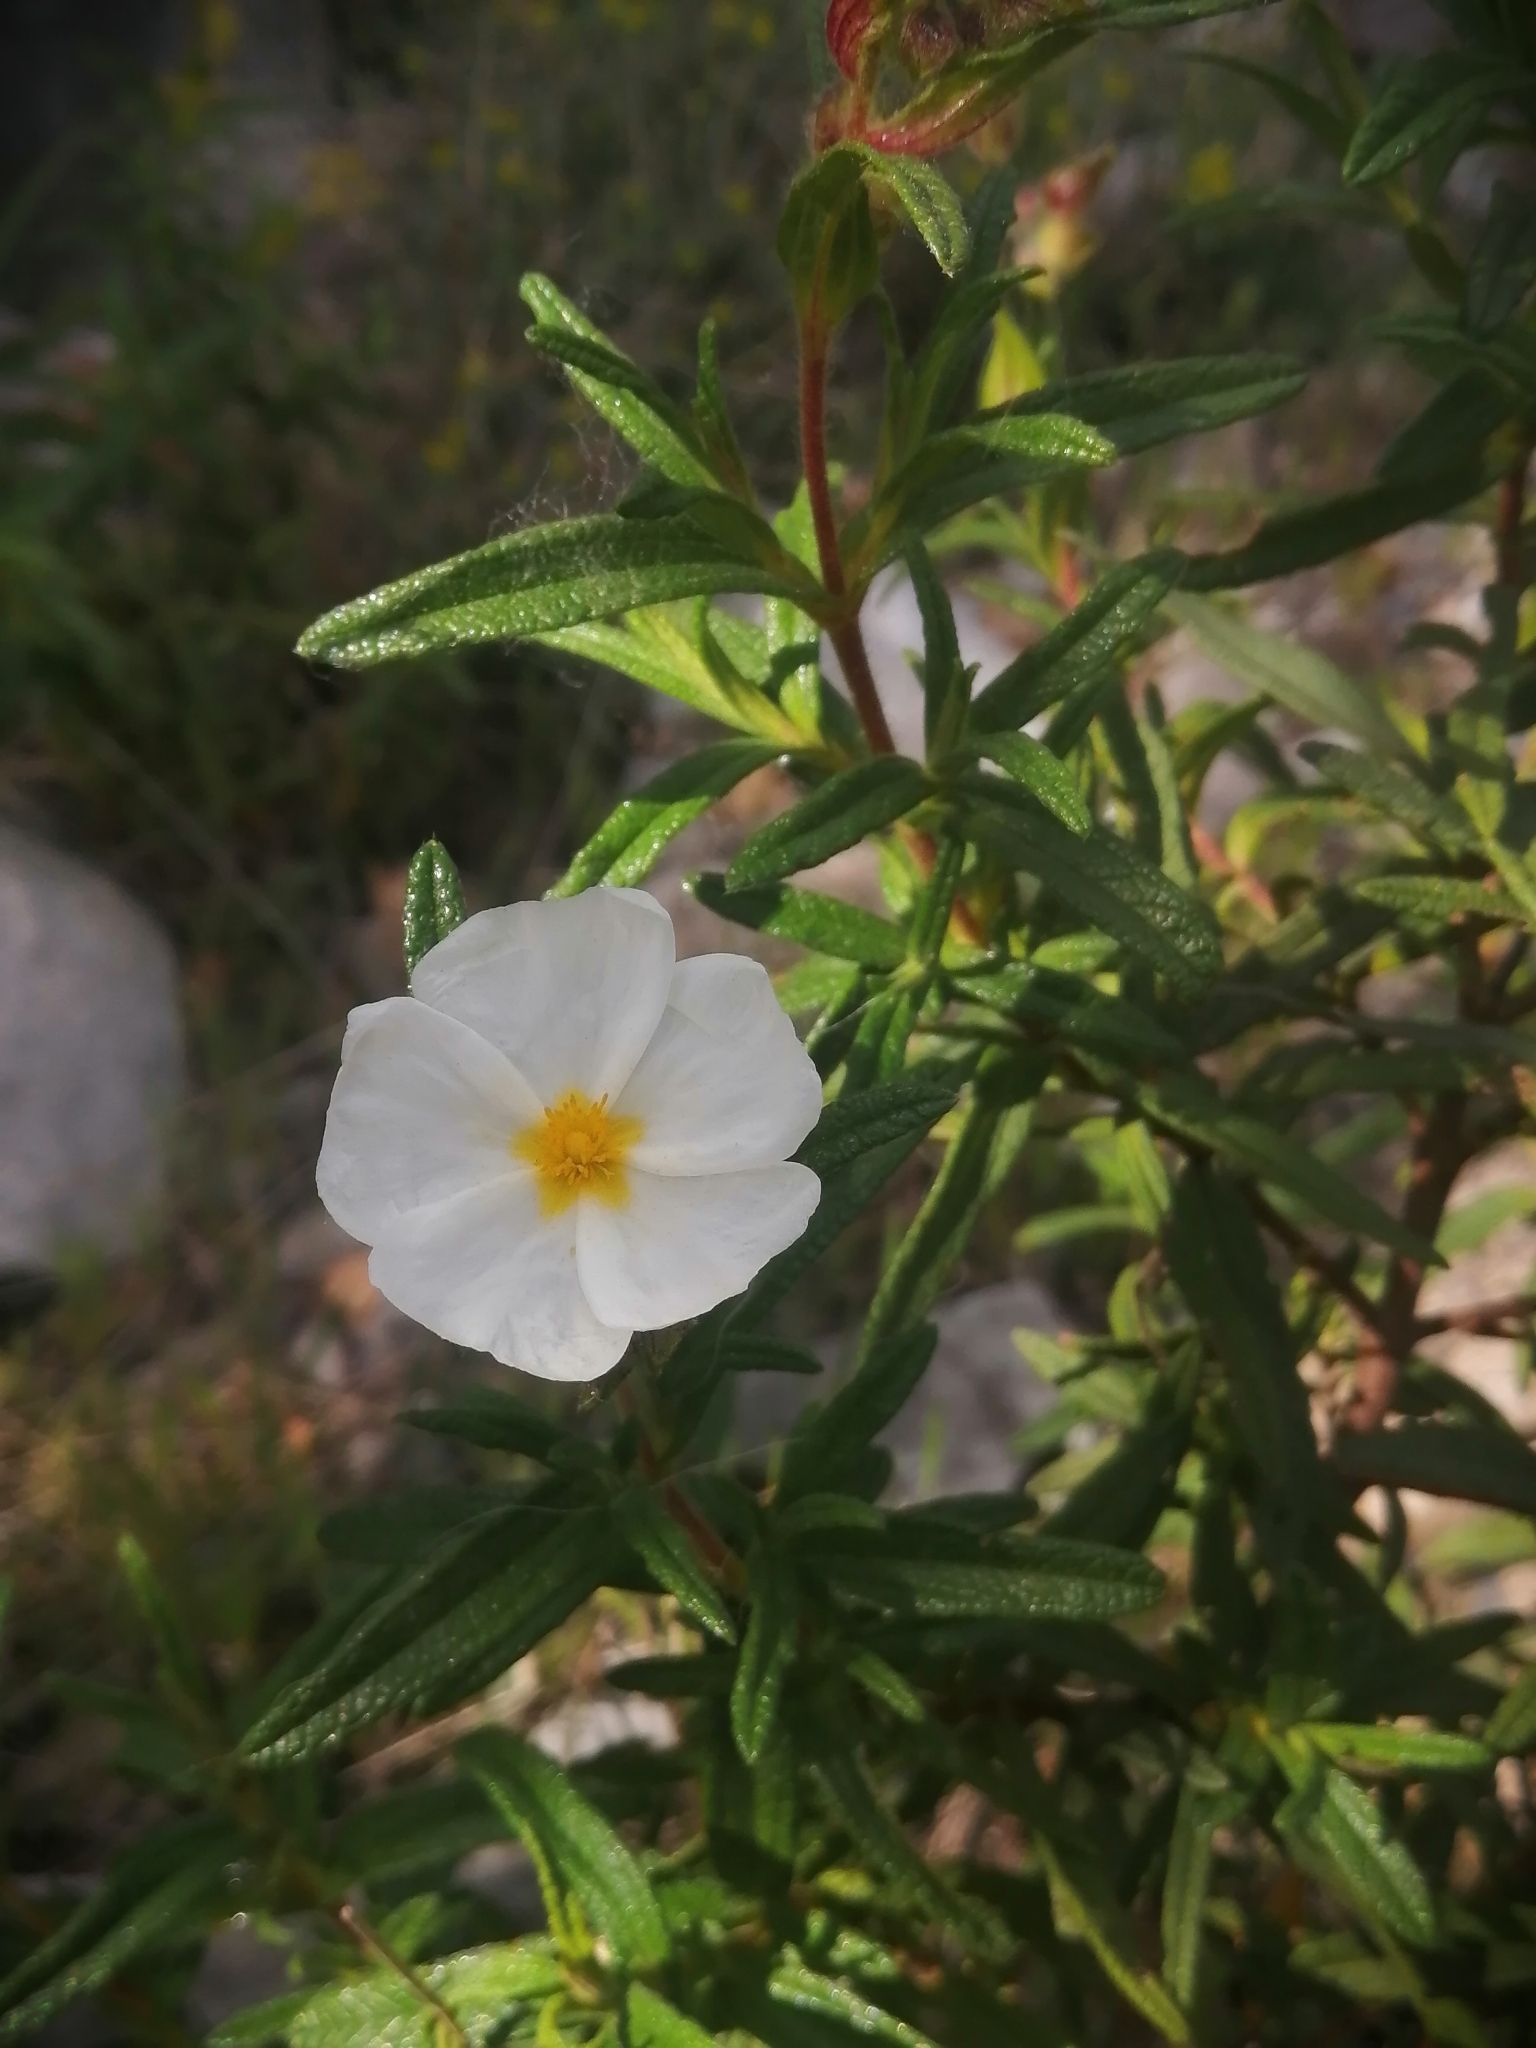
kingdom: Plantae
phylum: Tracheophyta
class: Magnoliopsida
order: Malvales
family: Cistaceae
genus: Cistus
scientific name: Cistus monspeliensis
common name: Montpelier cistus
